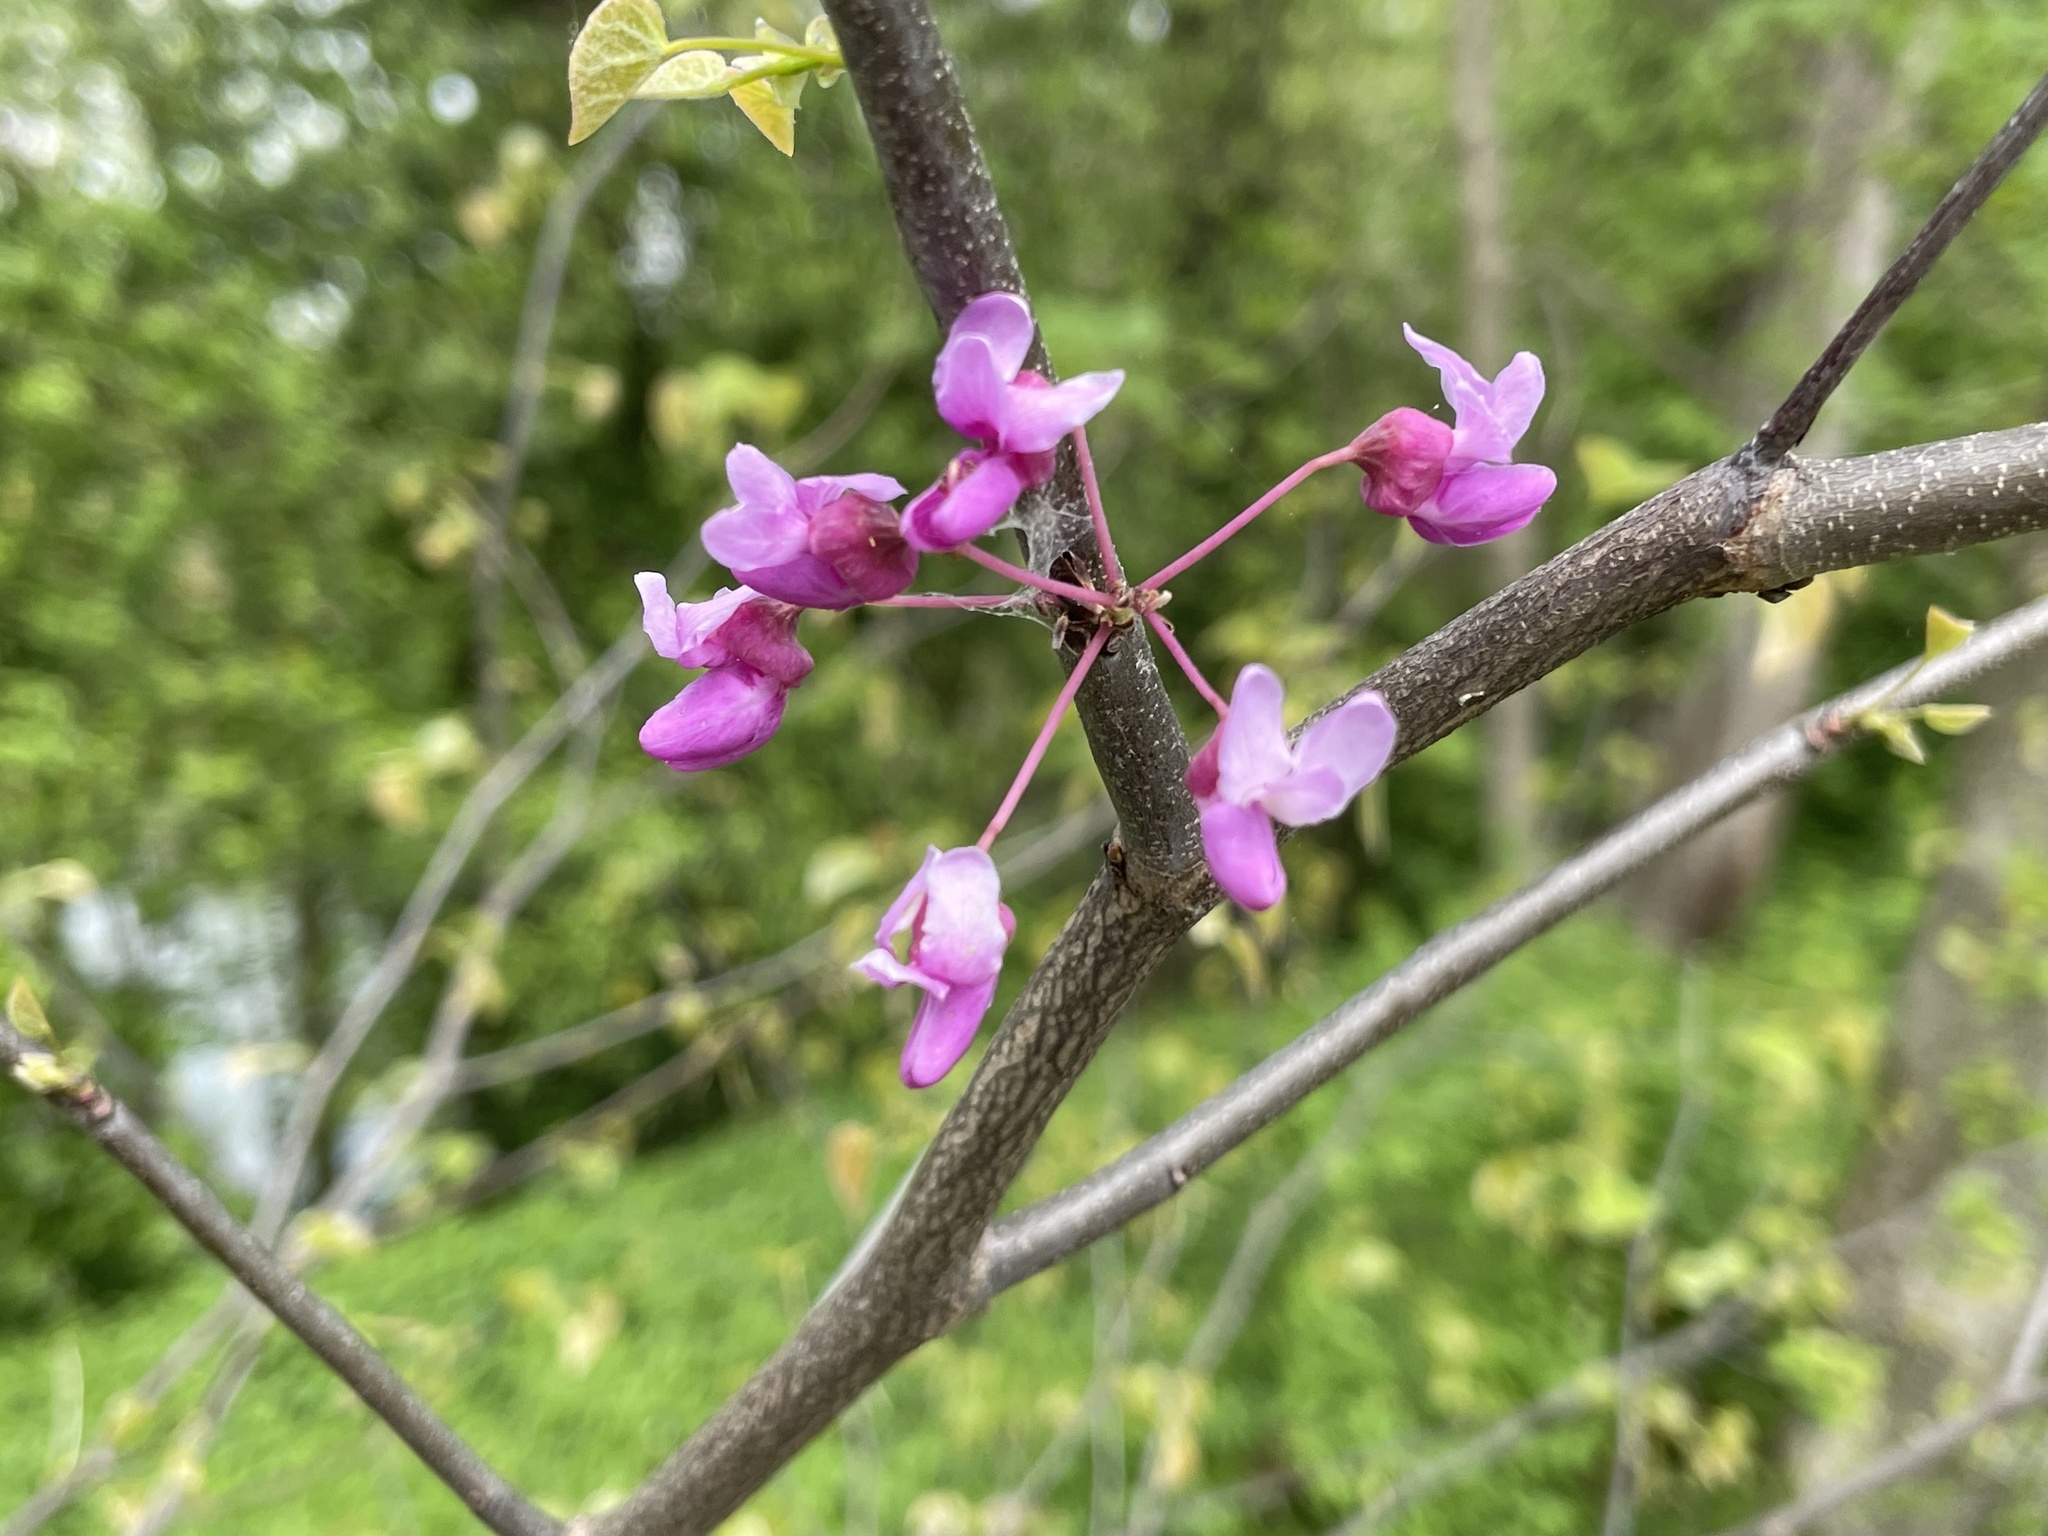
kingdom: Plantae
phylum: Tracheophyta
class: Magnoliopsida
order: Fabales
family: Fabaceae
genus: Cercis
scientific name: Cercis canadensis
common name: Eastern redbud
